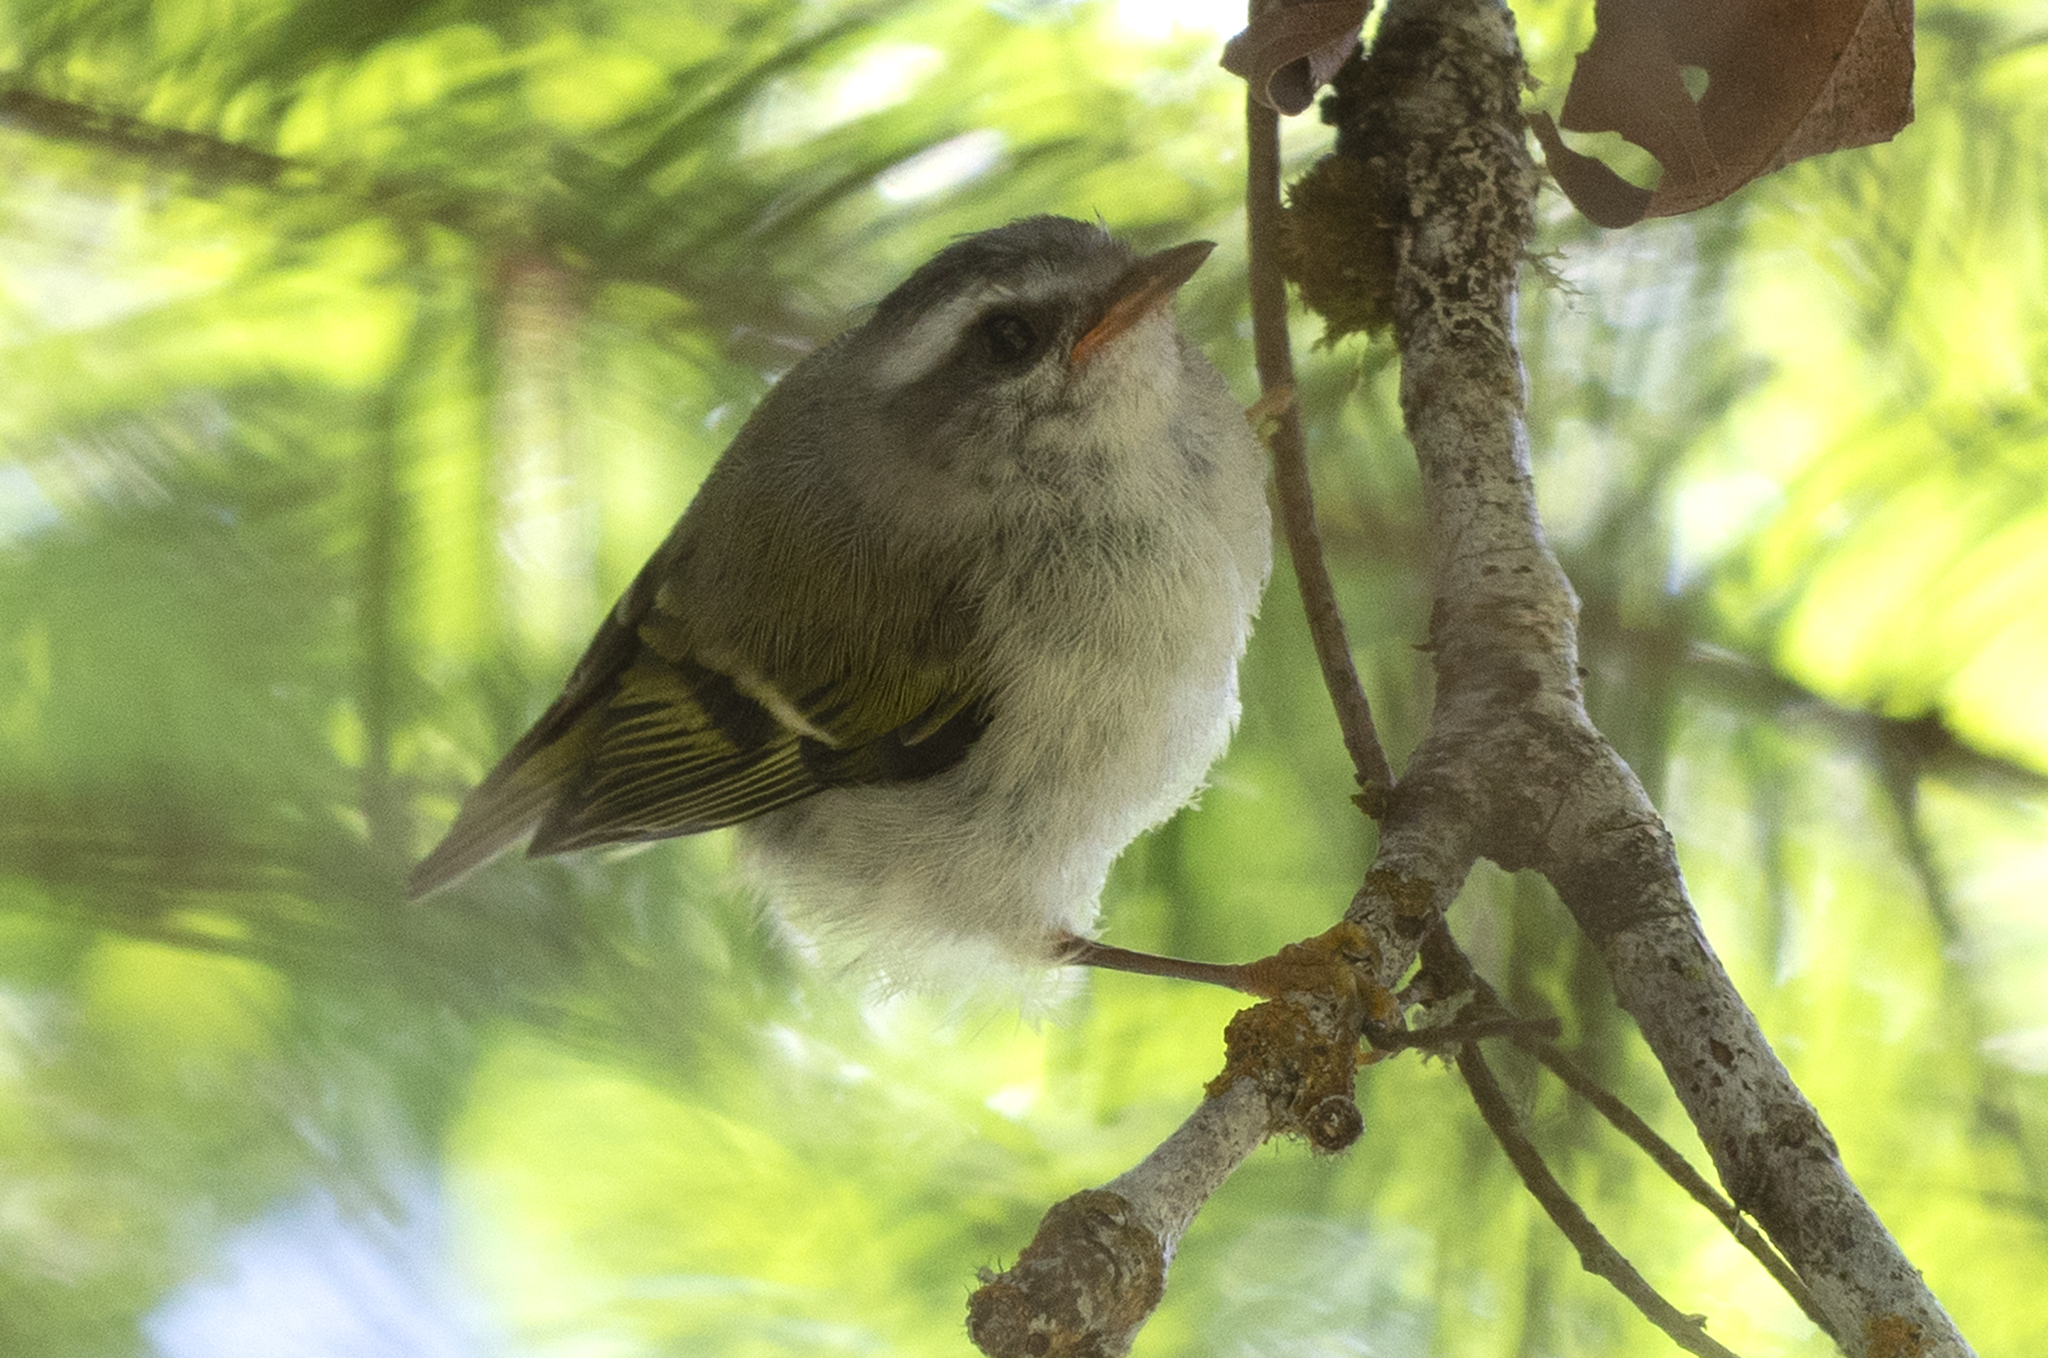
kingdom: Animalia
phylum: Chordata
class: Aves
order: Passeriformes
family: Regulidae
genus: Regulus
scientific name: Regulus satrapa
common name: Golden-crowned kinglet
